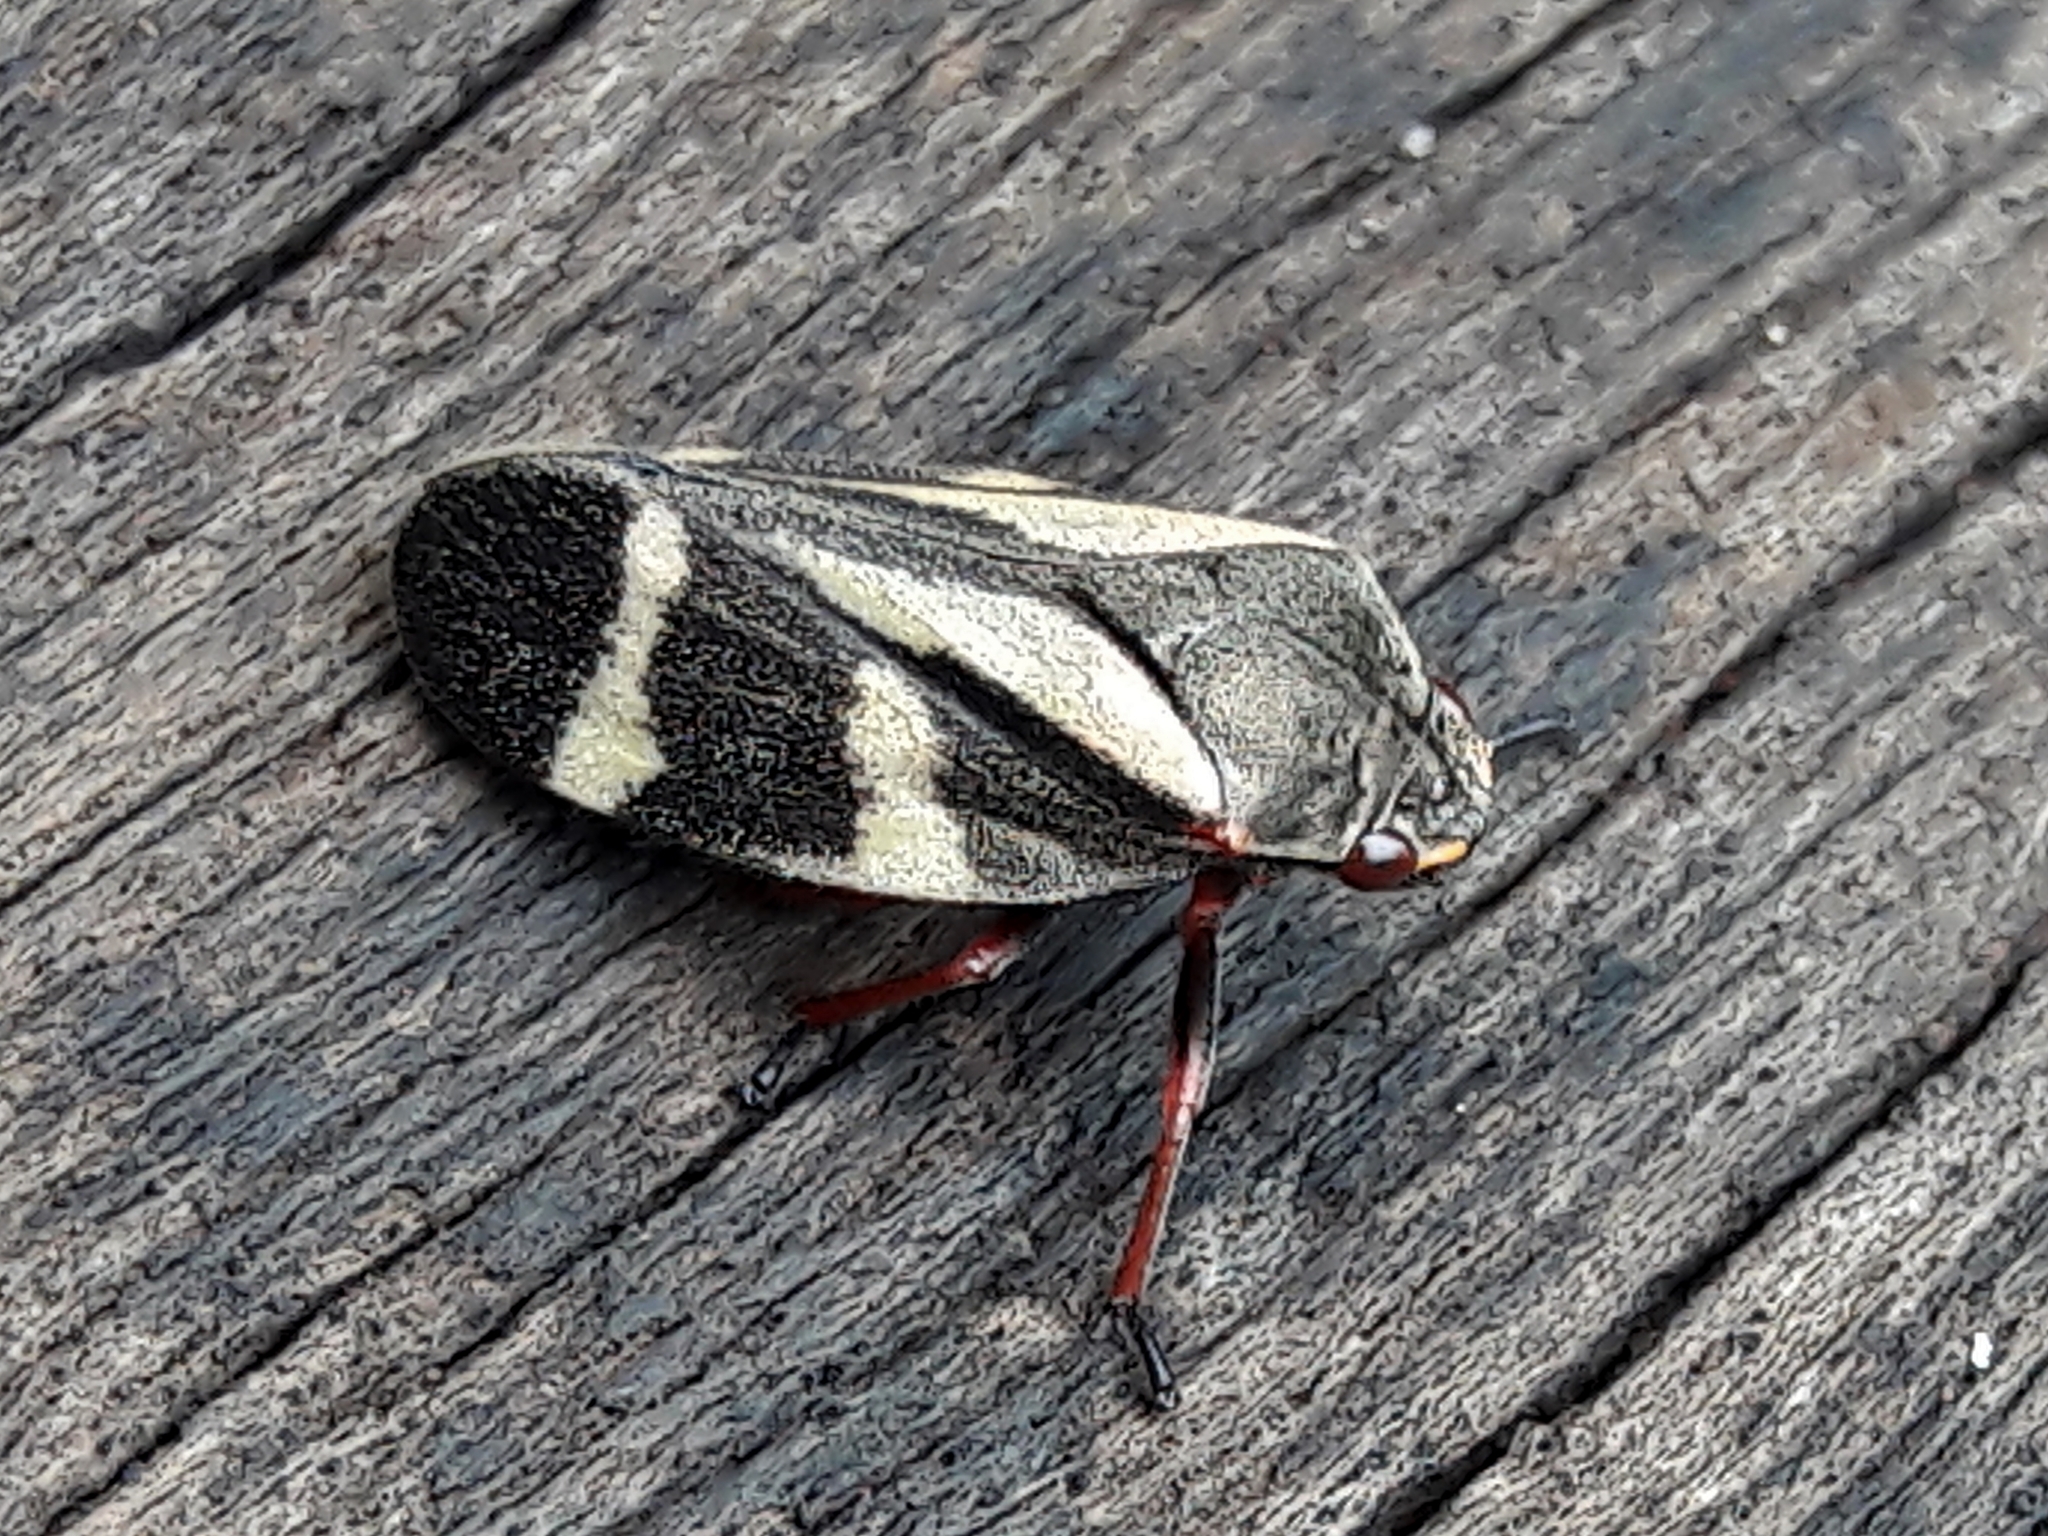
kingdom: Animalia
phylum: Arthropoda
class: Insecta
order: Hemiptera
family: Cercopidae
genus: Deois
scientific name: Deois flavopicta
